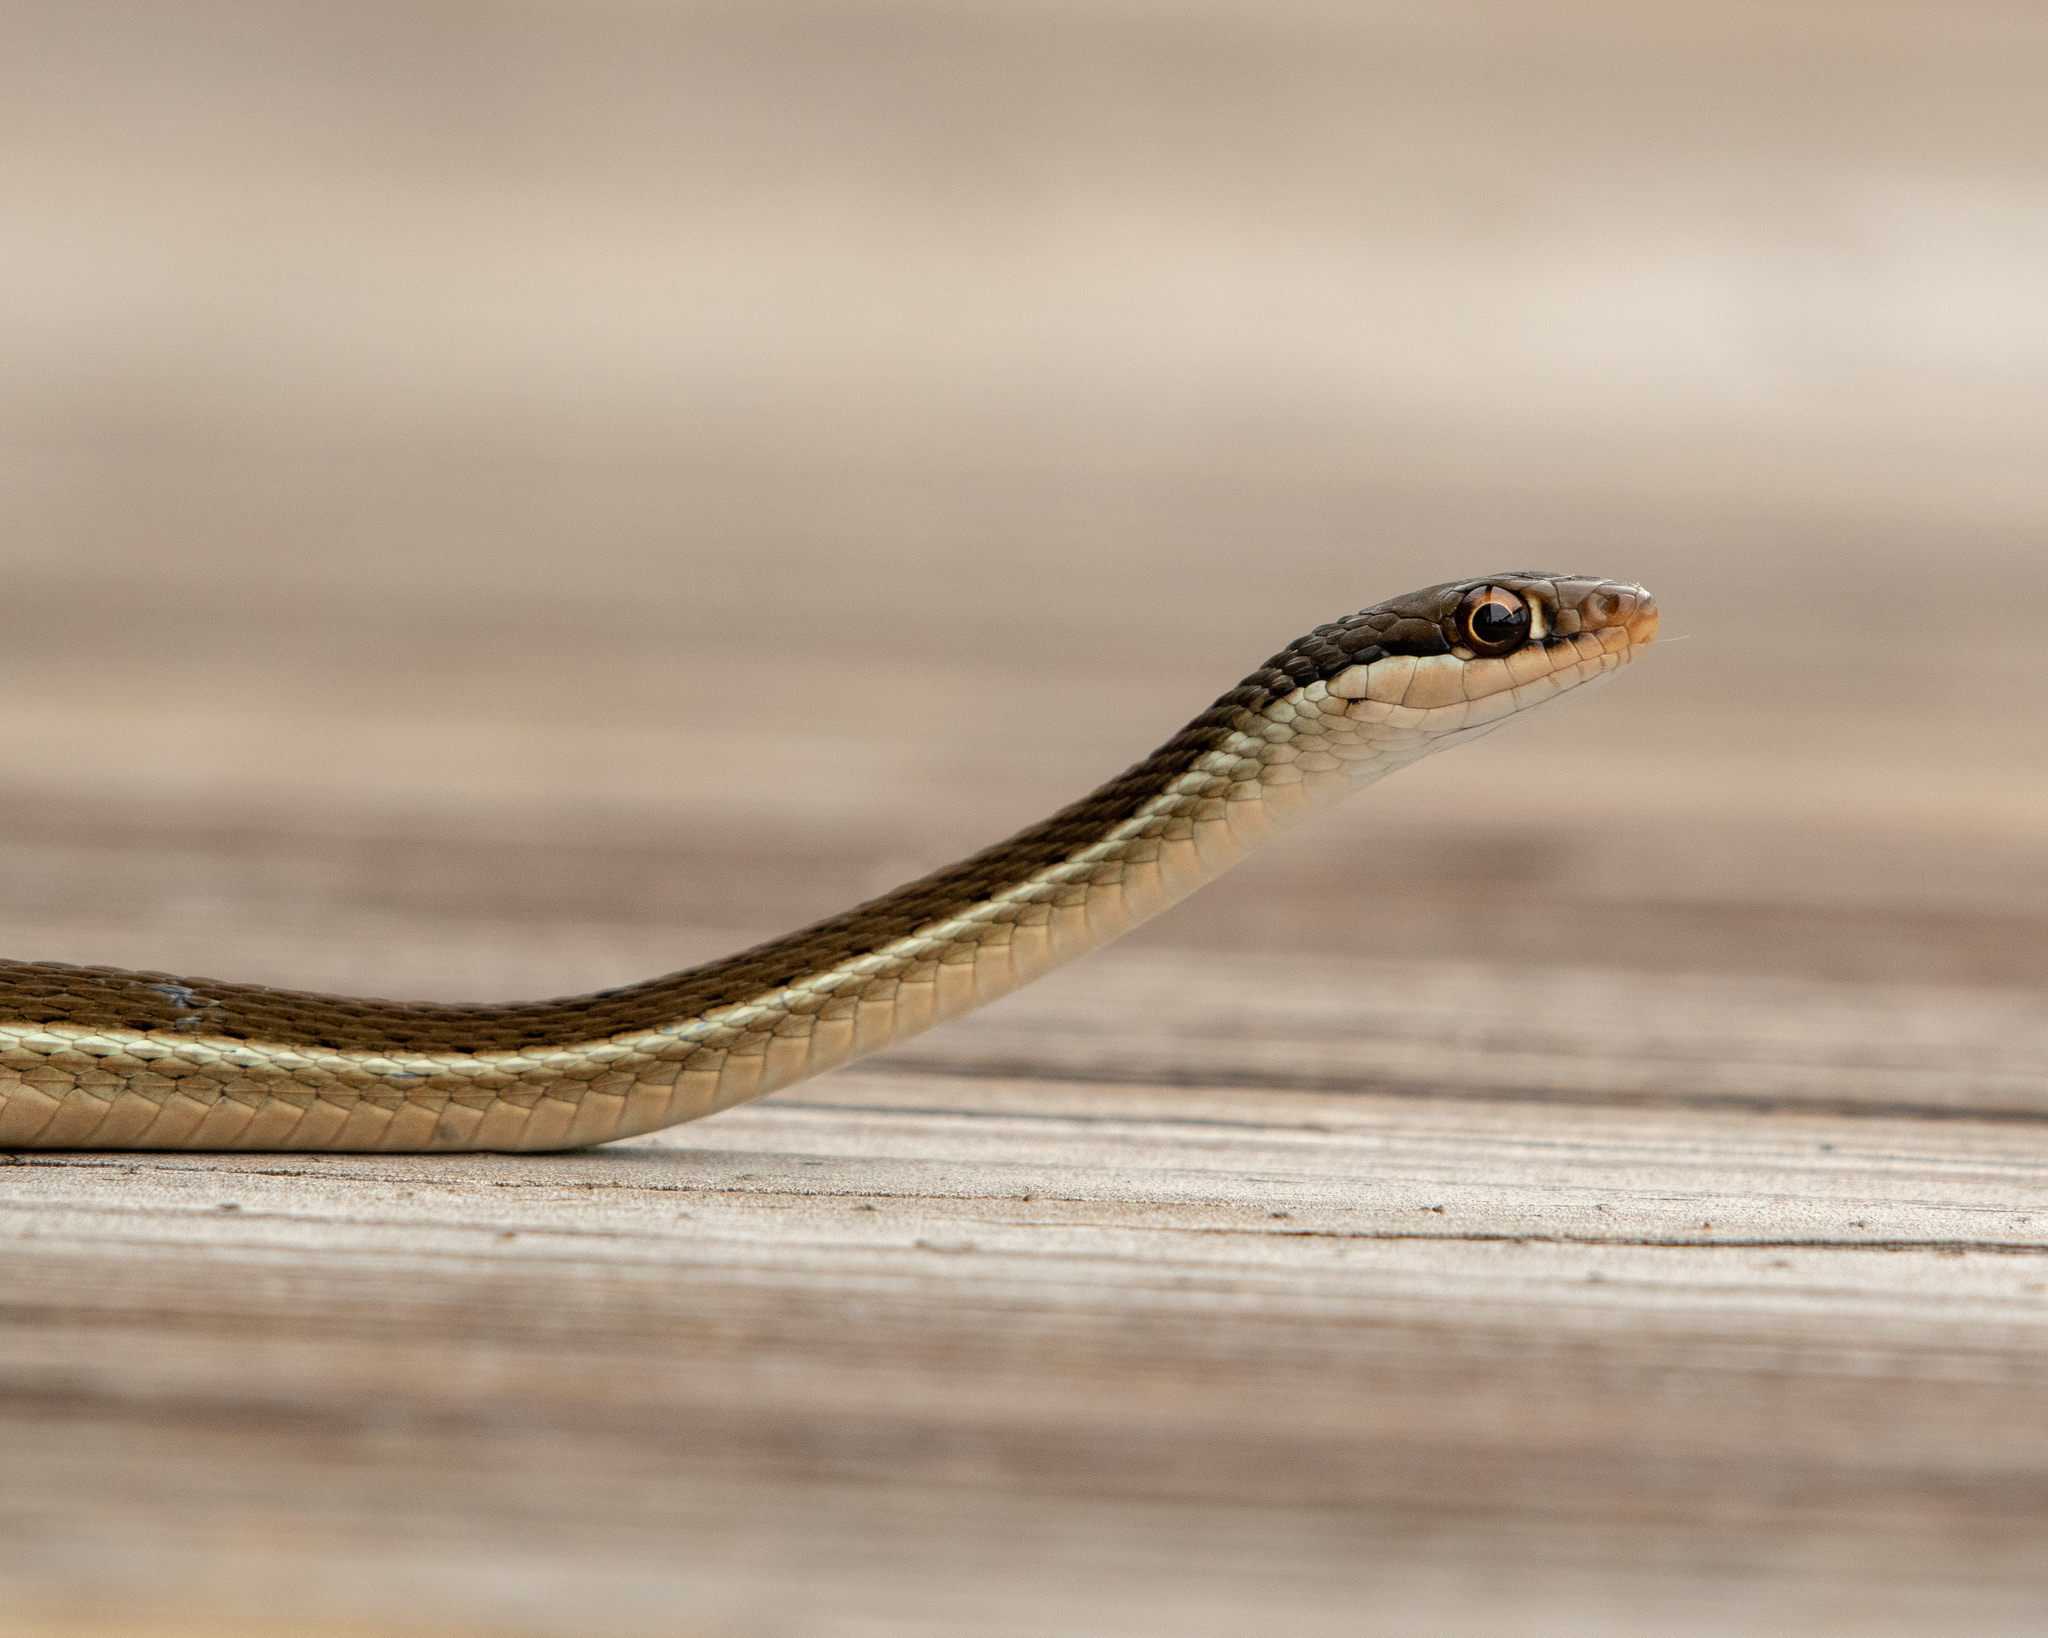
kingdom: Animalia
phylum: Chordata
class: Squamata
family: Colubridae
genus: Thamnophis
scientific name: Thamnophis saurita
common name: Eastern ribbonsnake
